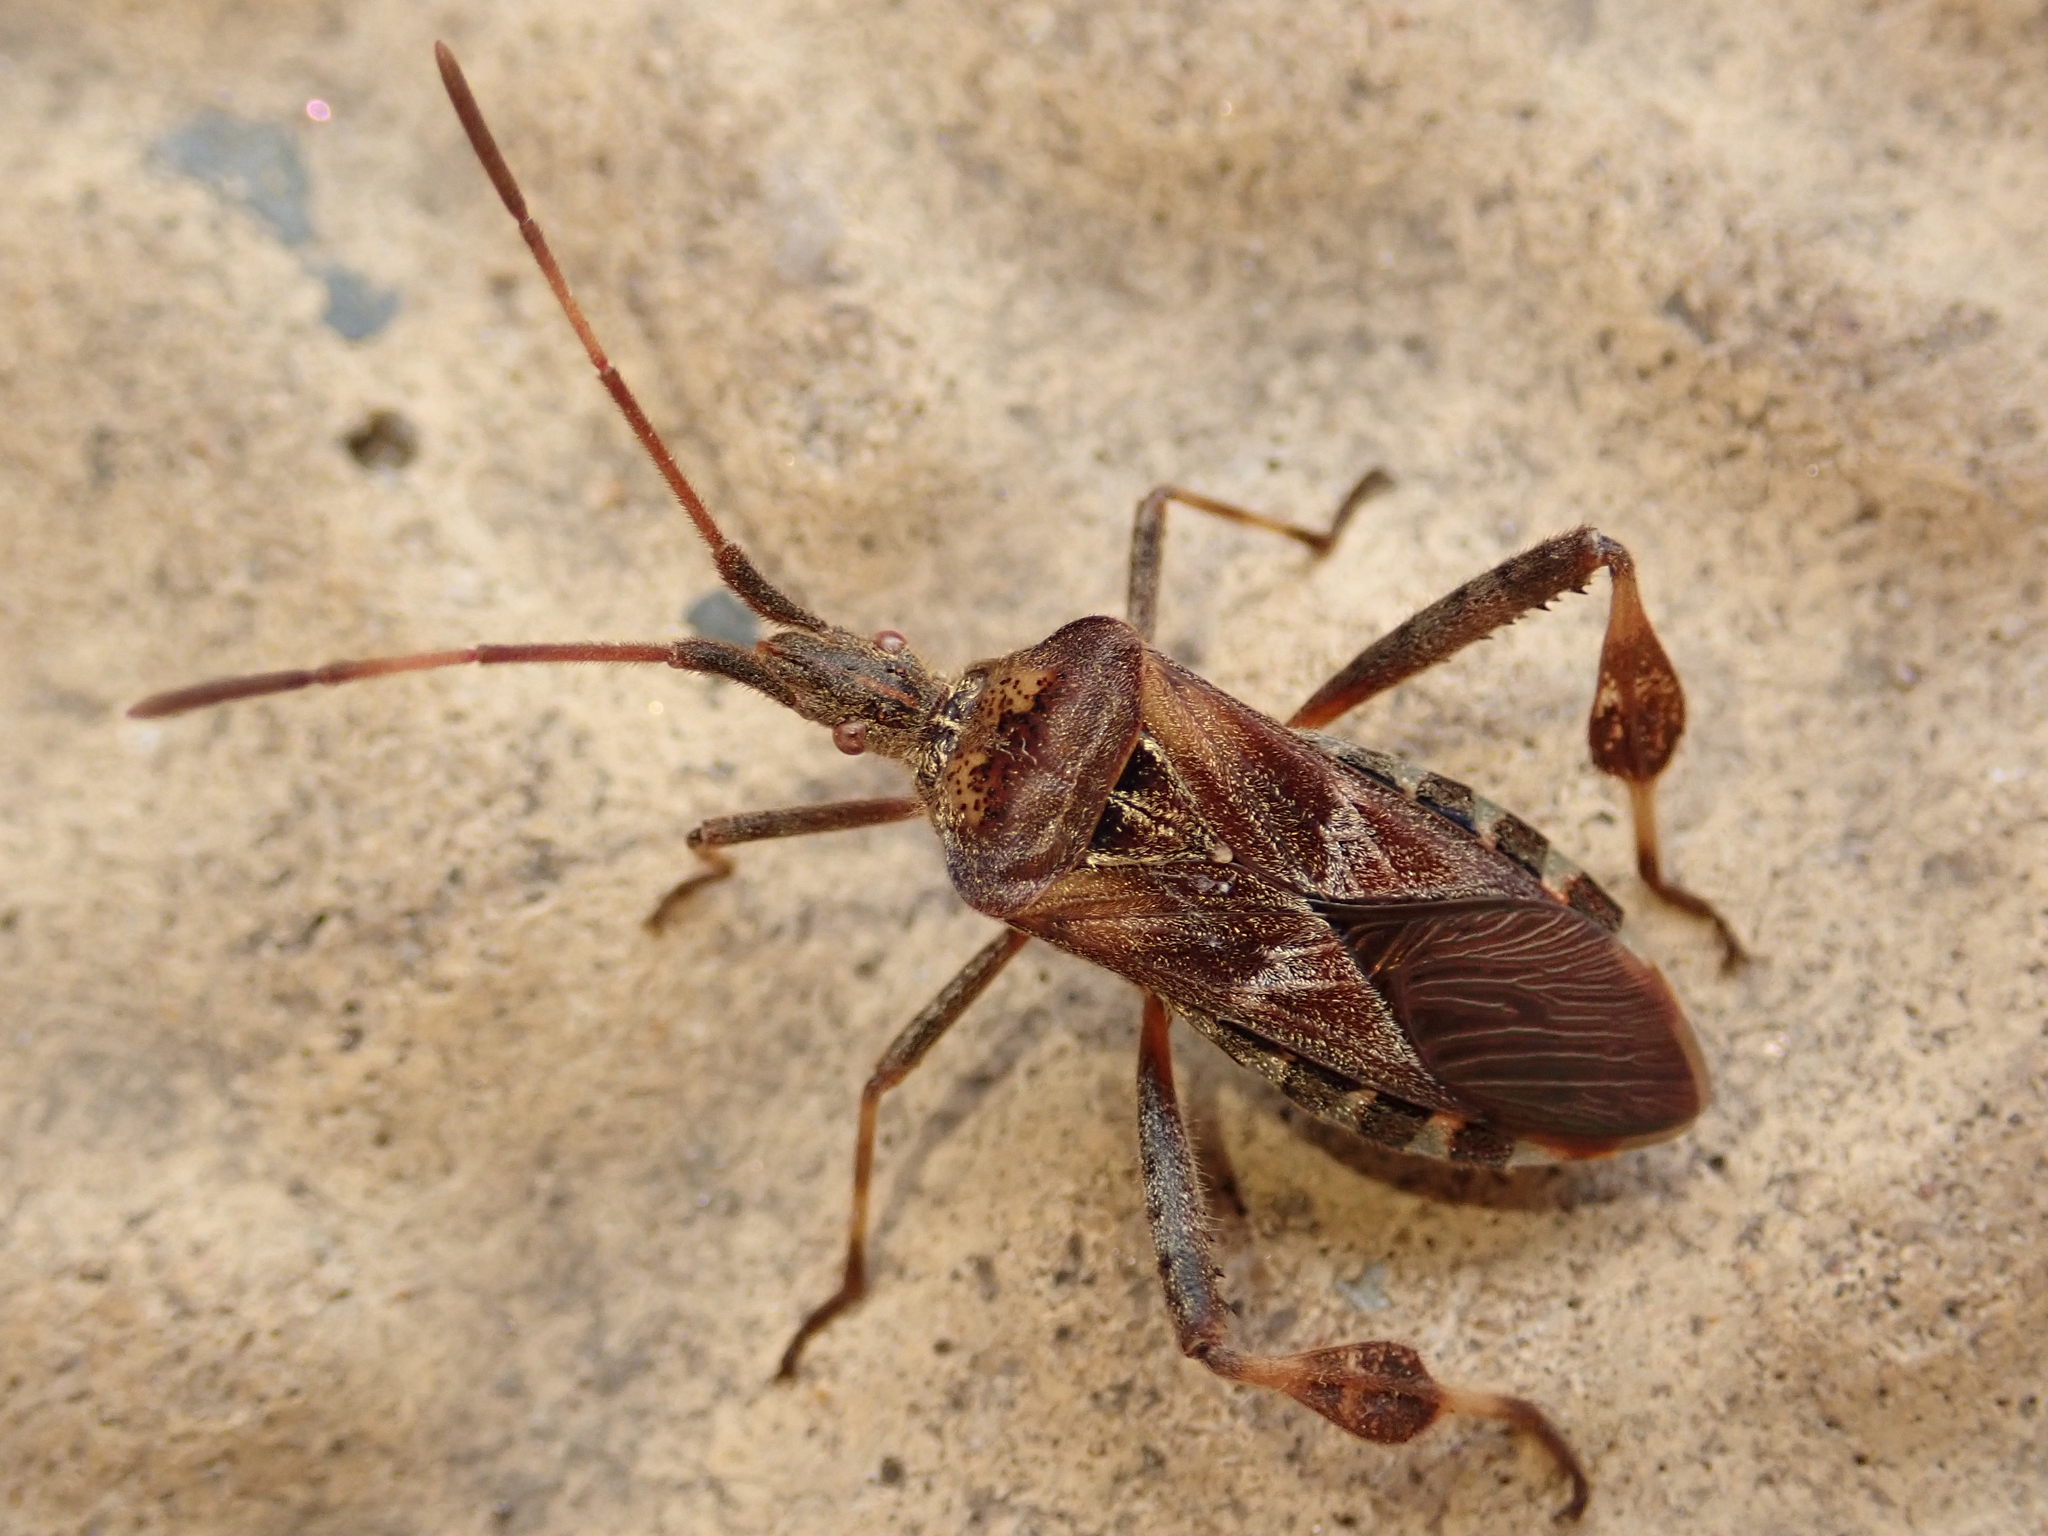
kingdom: Animalia
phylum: Arthropoda
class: Insecta
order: Hemiptera
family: Coreidae
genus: Leptoglossus
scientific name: Leptoglossus occidentalis
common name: Western conifer-seed bug
